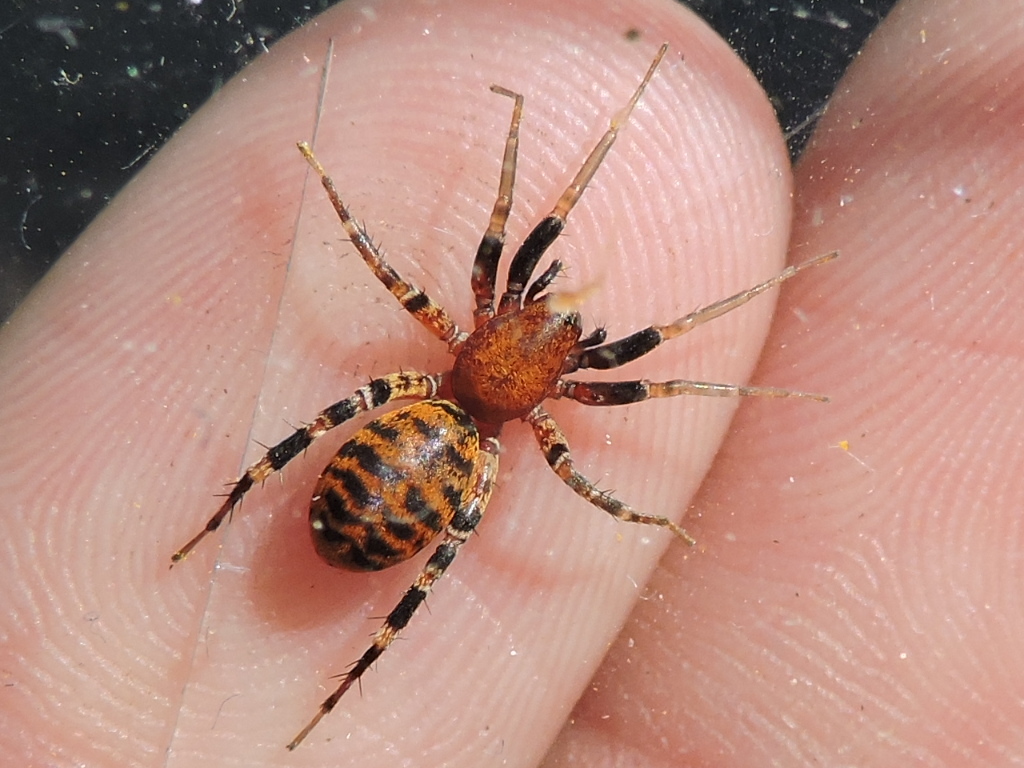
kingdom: Animalia
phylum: Arthropoda
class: Arachnida
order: Araneae
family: Corinnidae
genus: Castianeira
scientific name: Castianeira amoena
